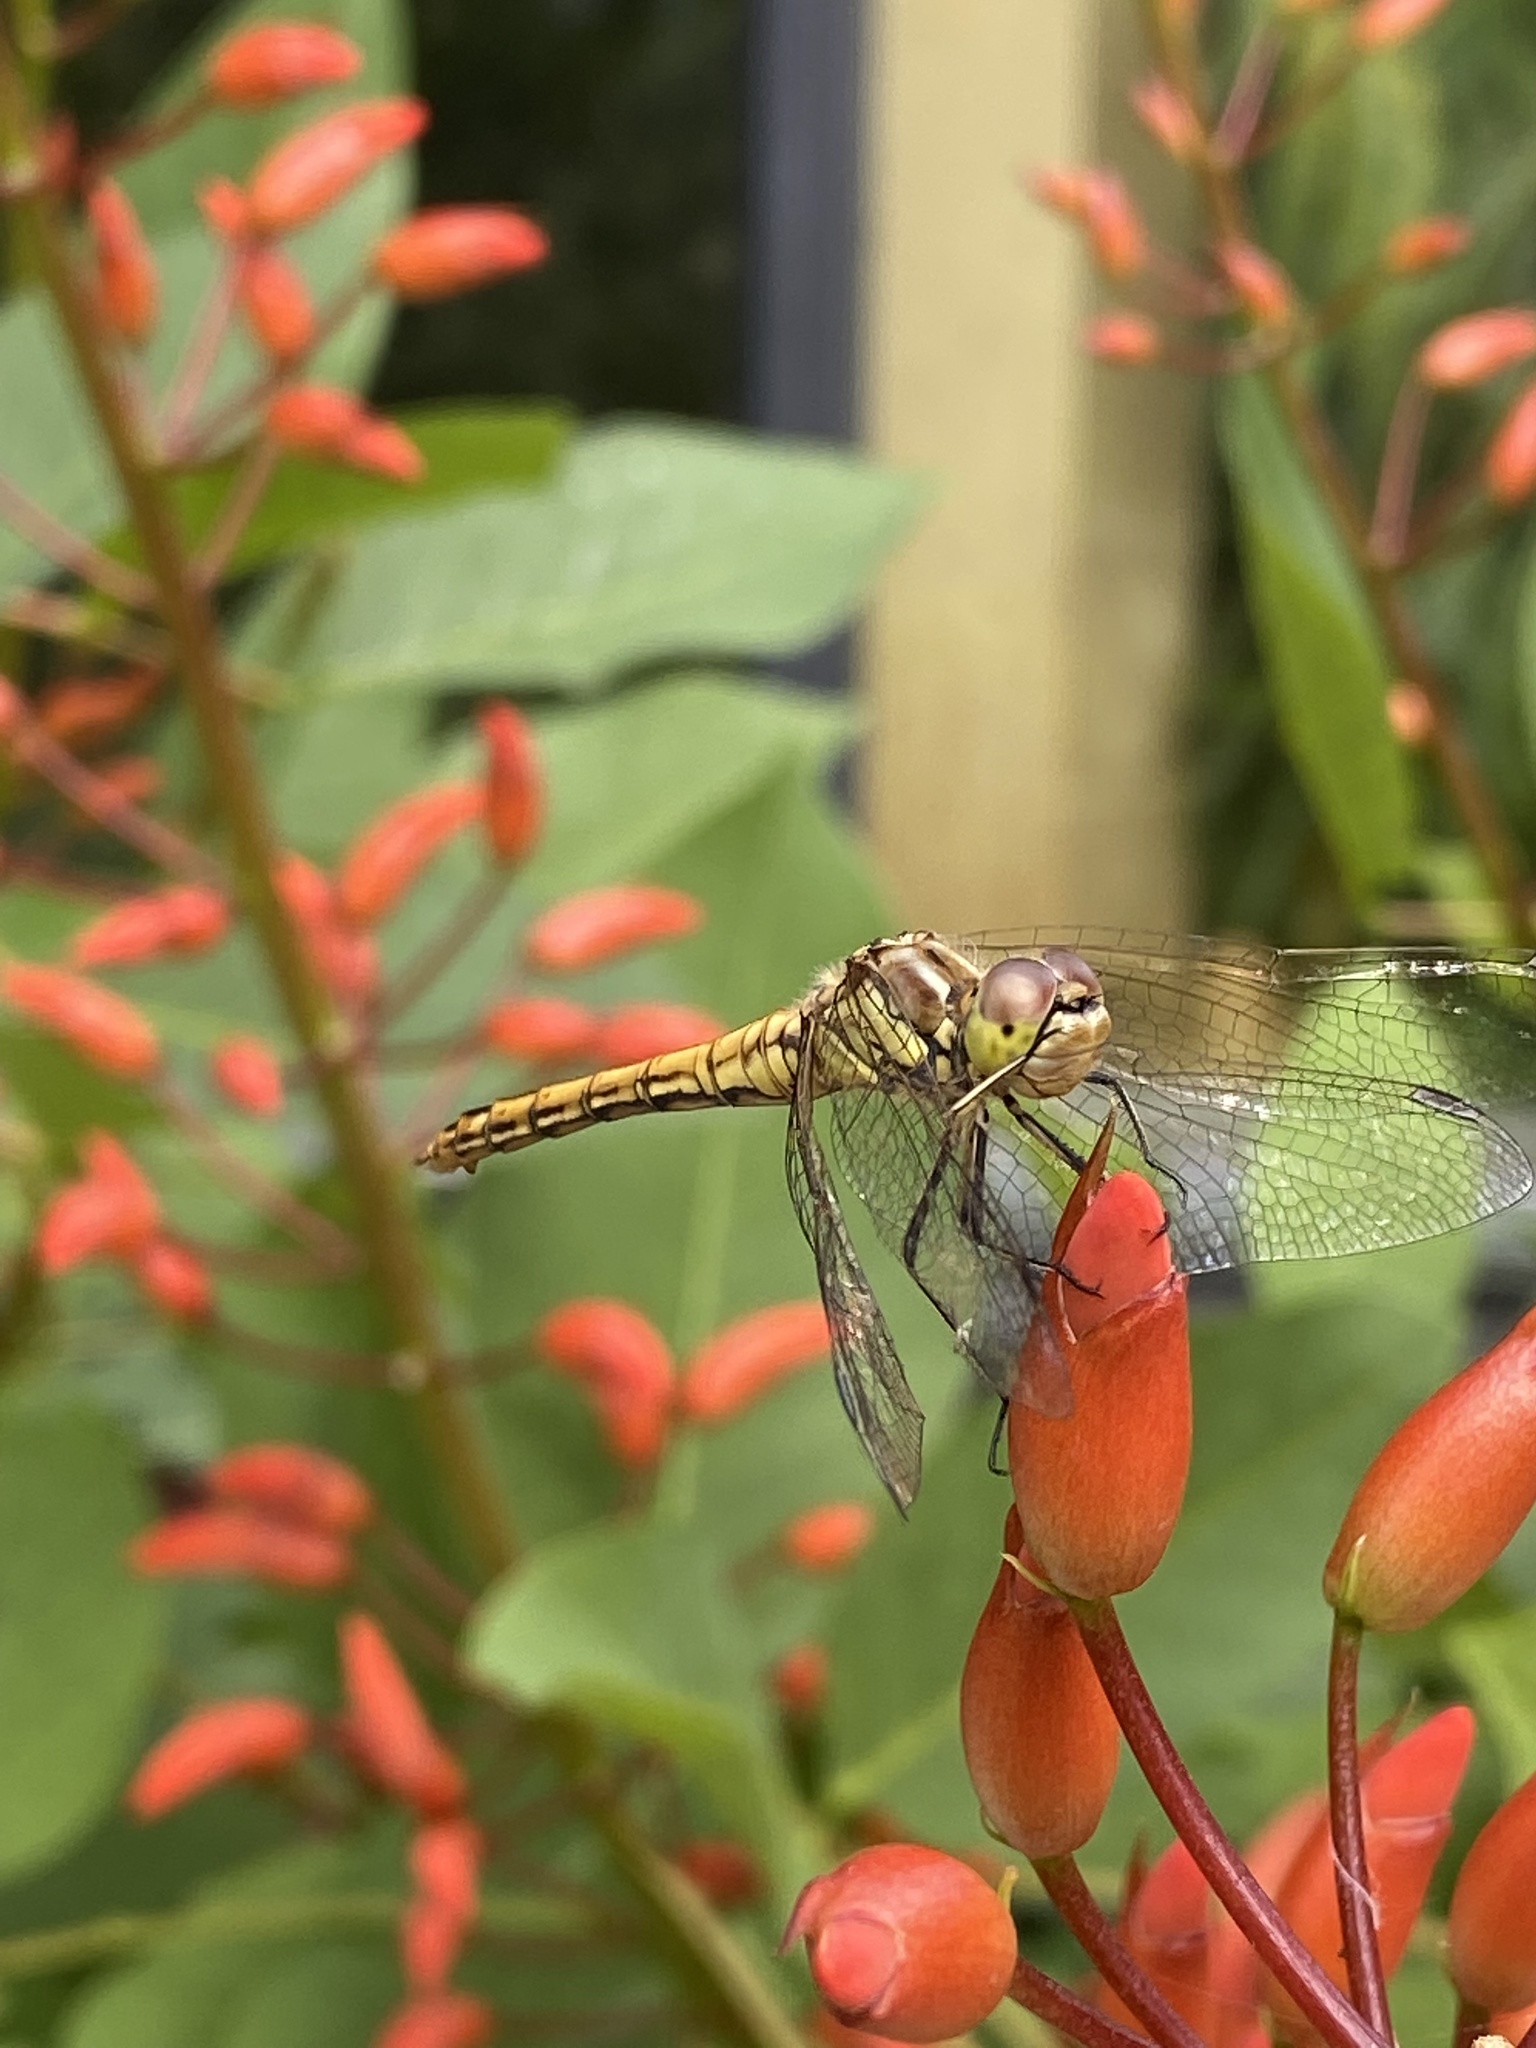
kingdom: Animalia
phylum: Arthropoda
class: Insecta
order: Odonata
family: Libellulidae
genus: Sympetrum
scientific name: Sympetrum vulgatum
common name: Vagrant darter
